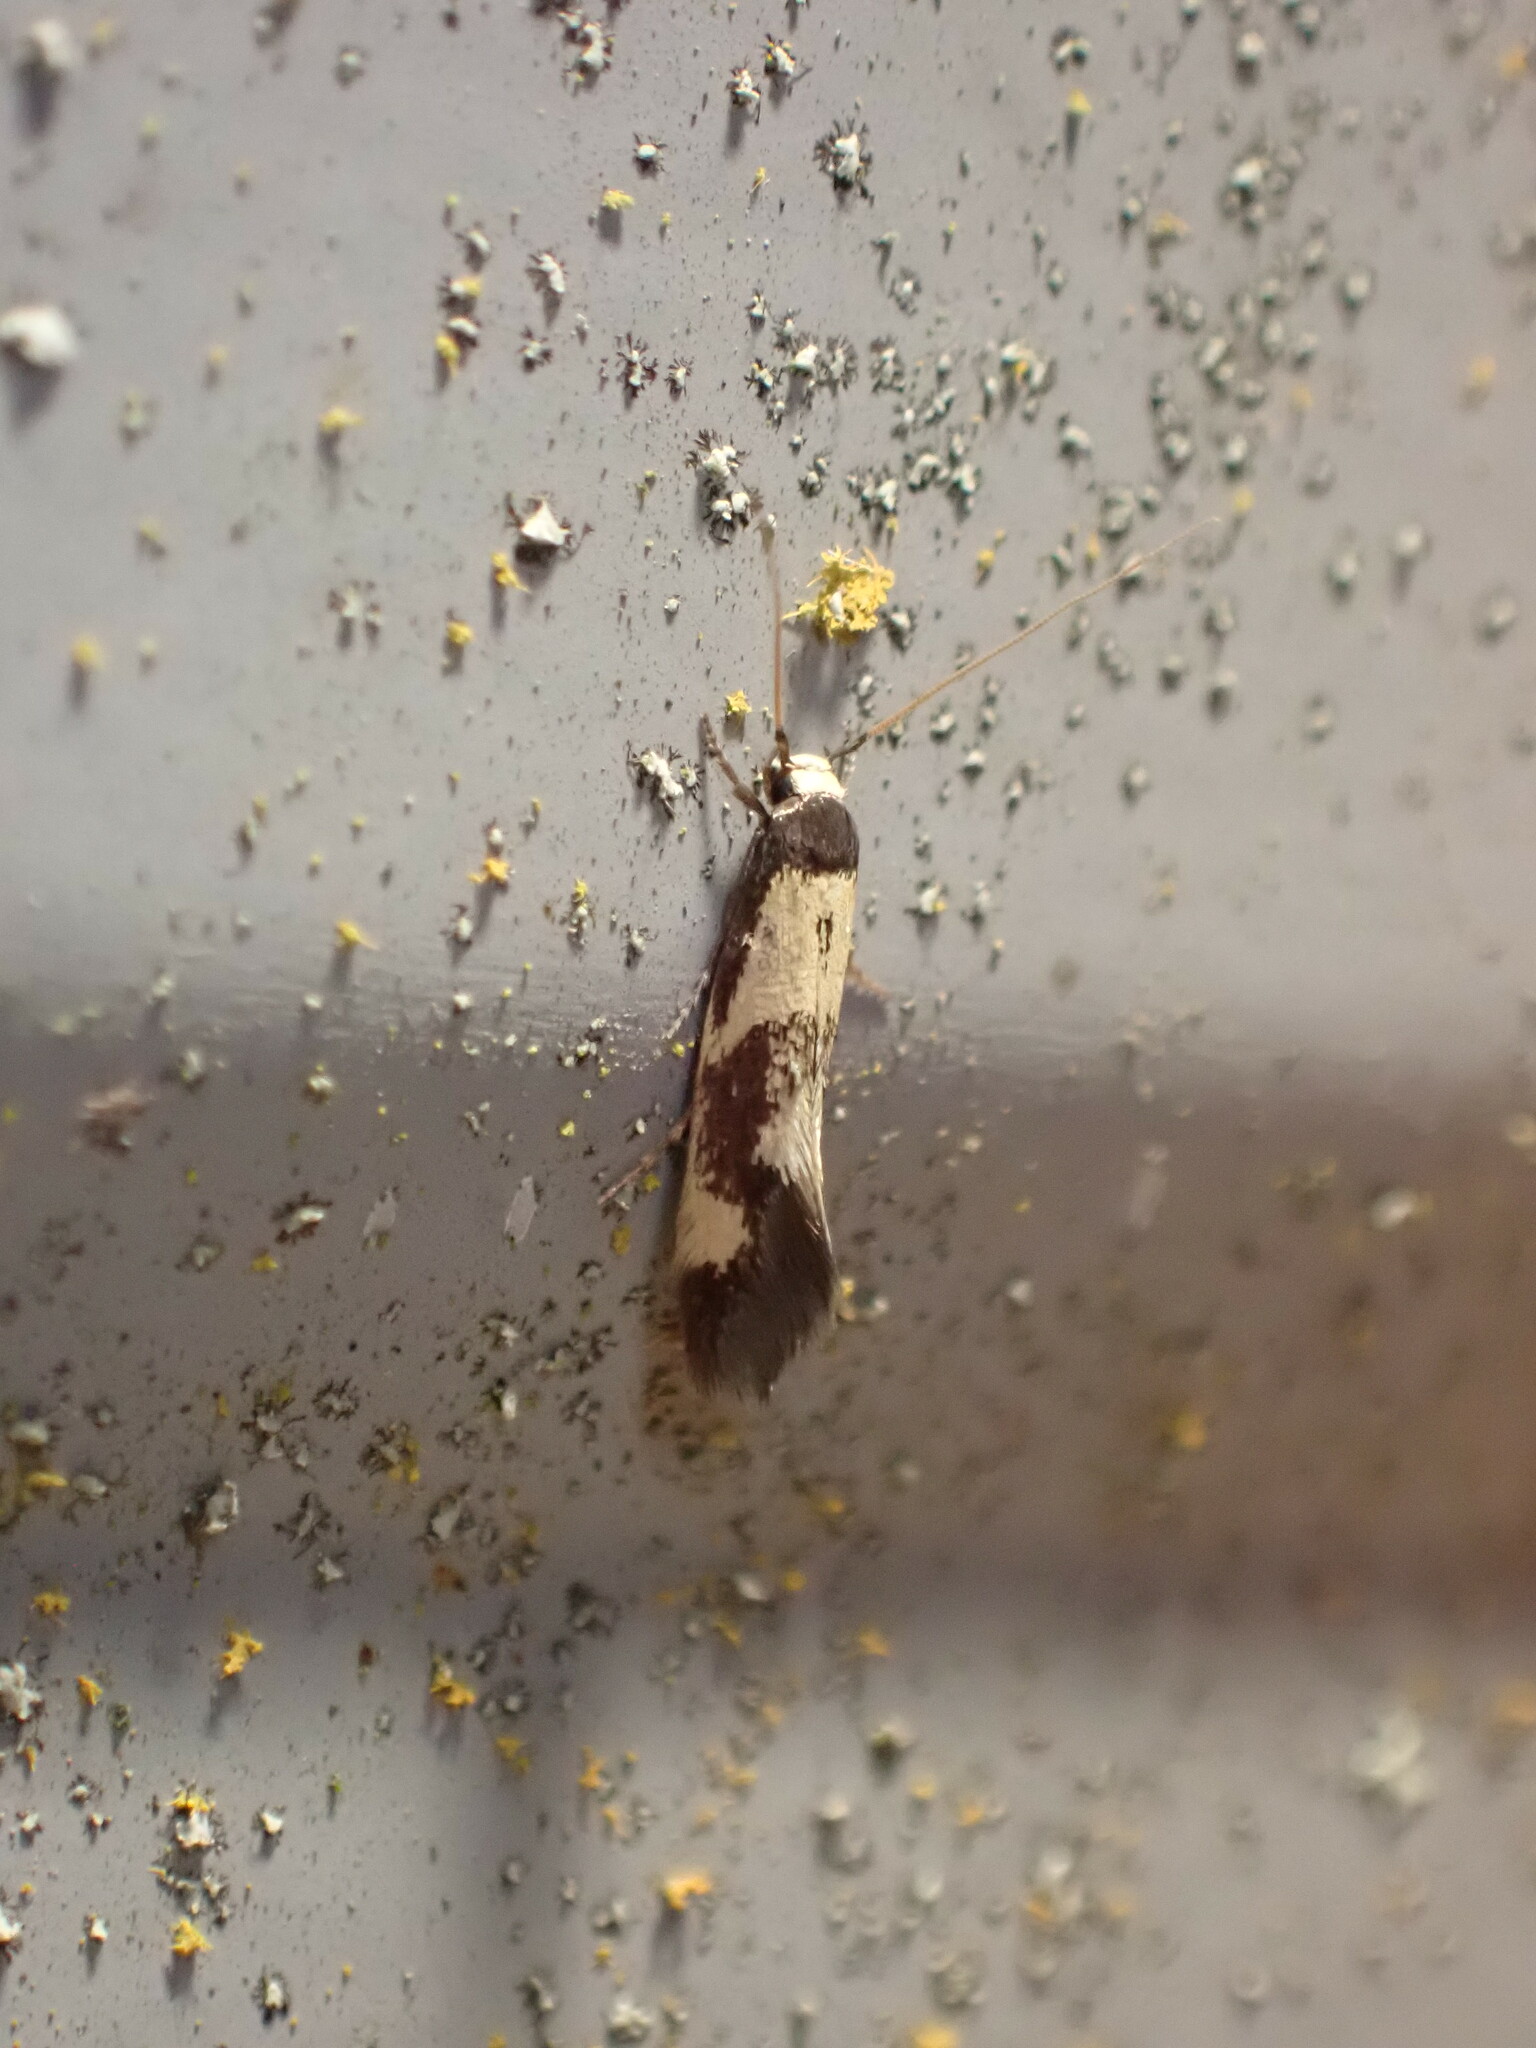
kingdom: Animalia
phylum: Arthropoda
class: Insecta
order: Lepidoptera
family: Tineidae
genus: Opogona
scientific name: Opogona comptella
